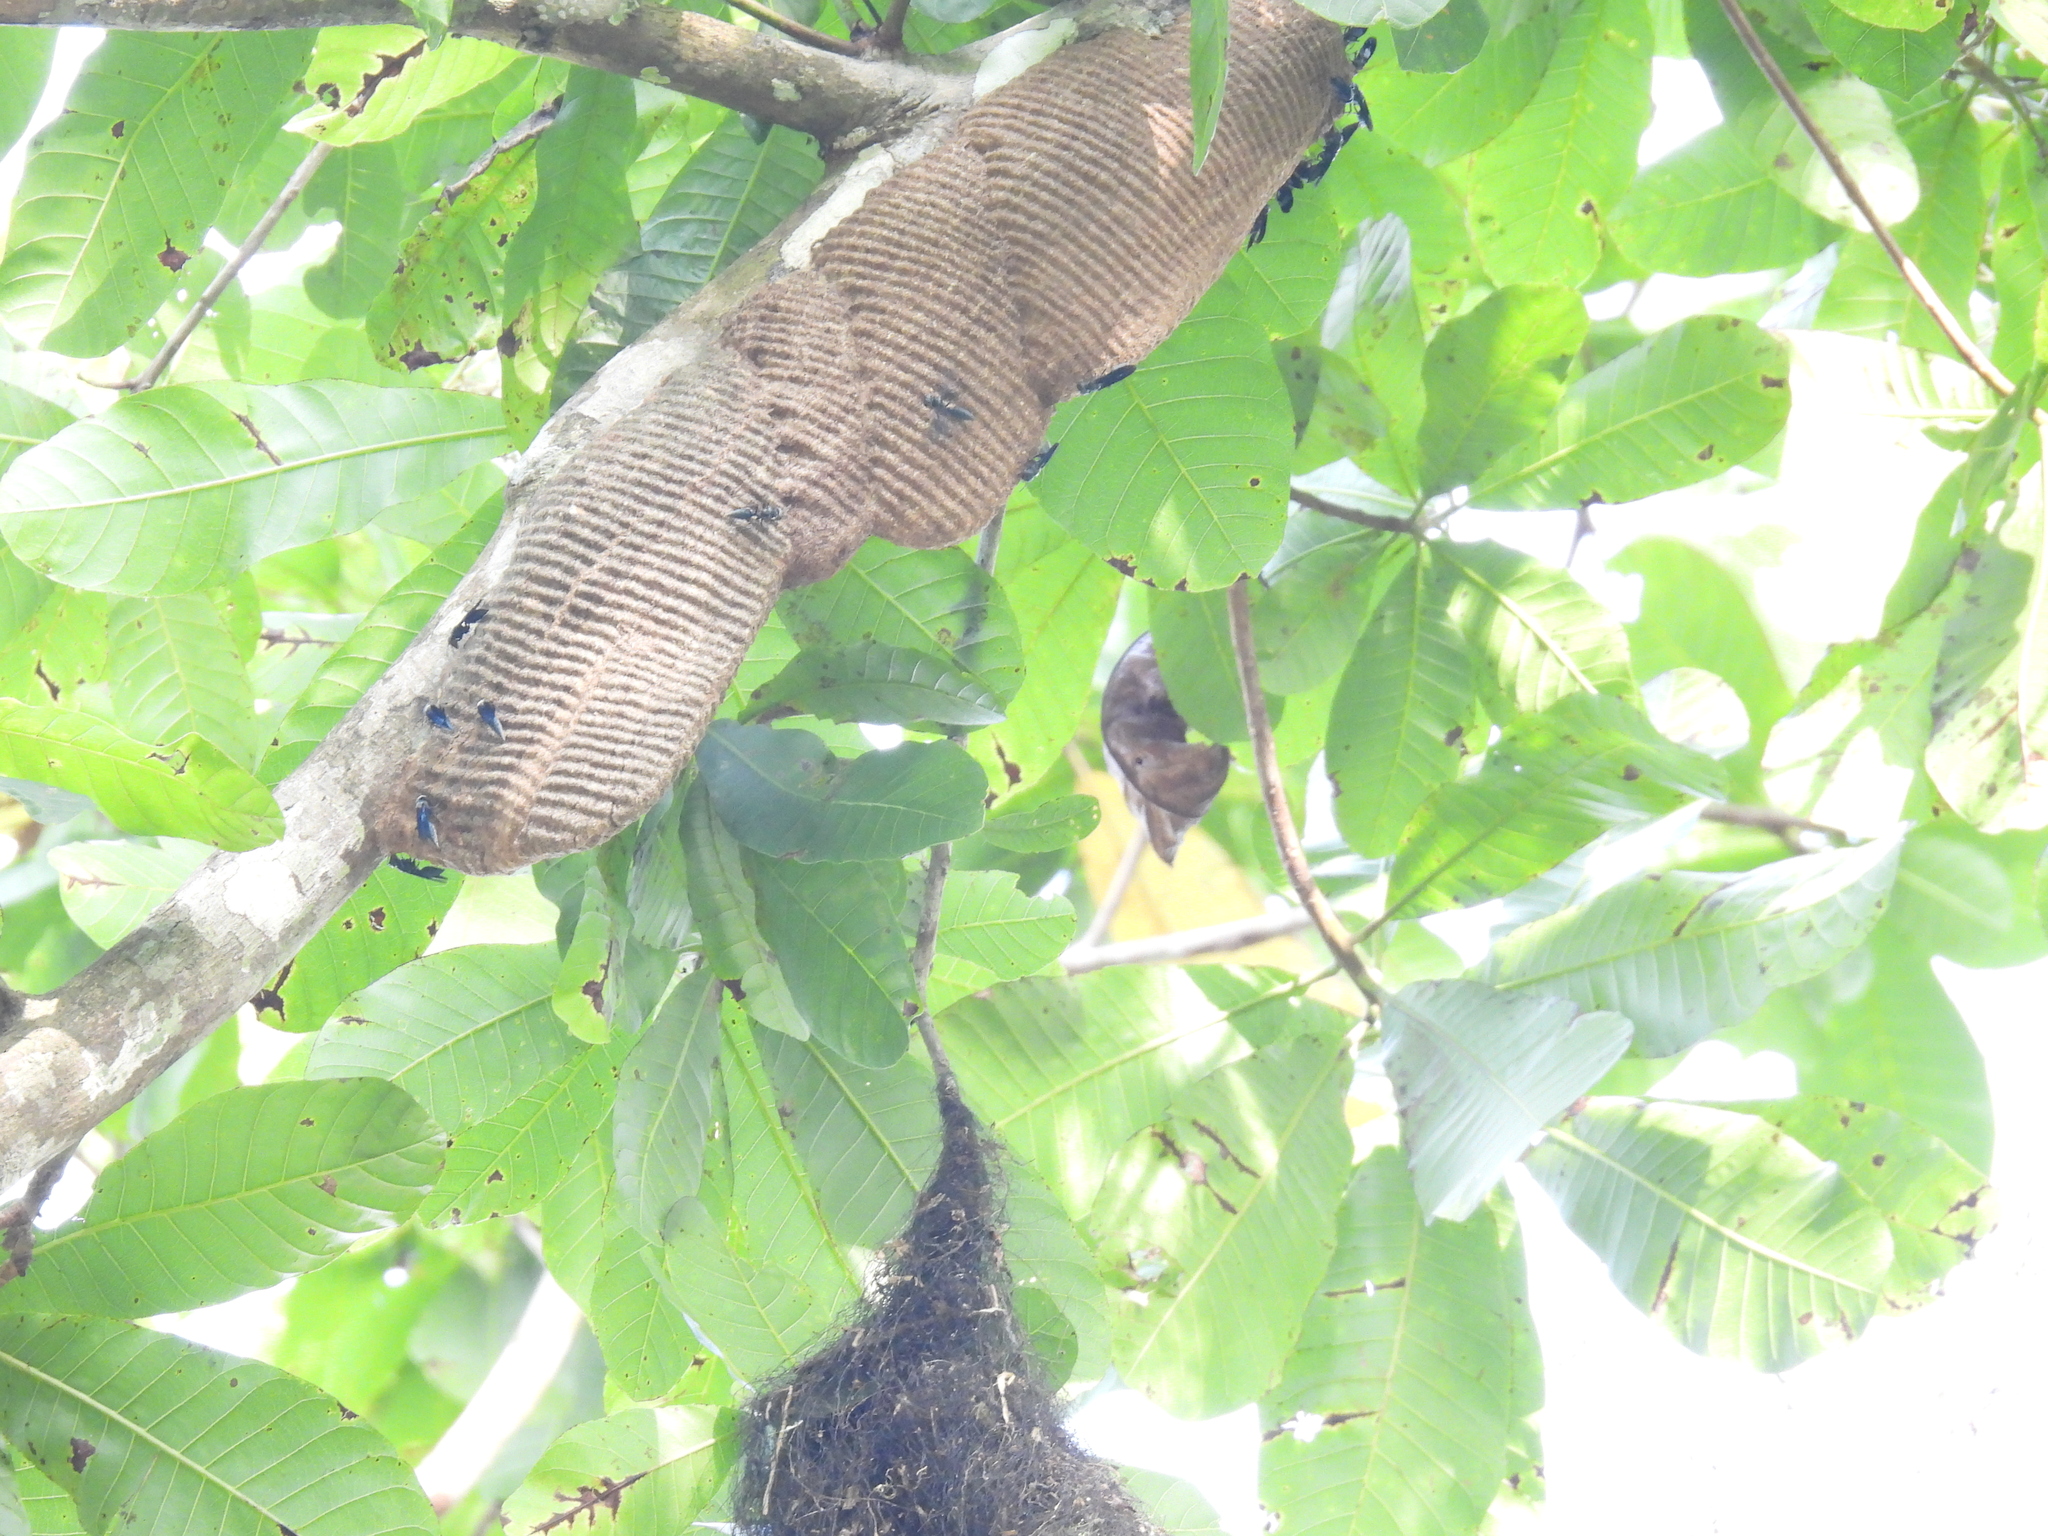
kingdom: Animalia
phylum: Arthropoda
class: Insecta
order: Hymenoptera
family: Vespidae
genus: Synoeca
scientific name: Synoeca septentrionalis
